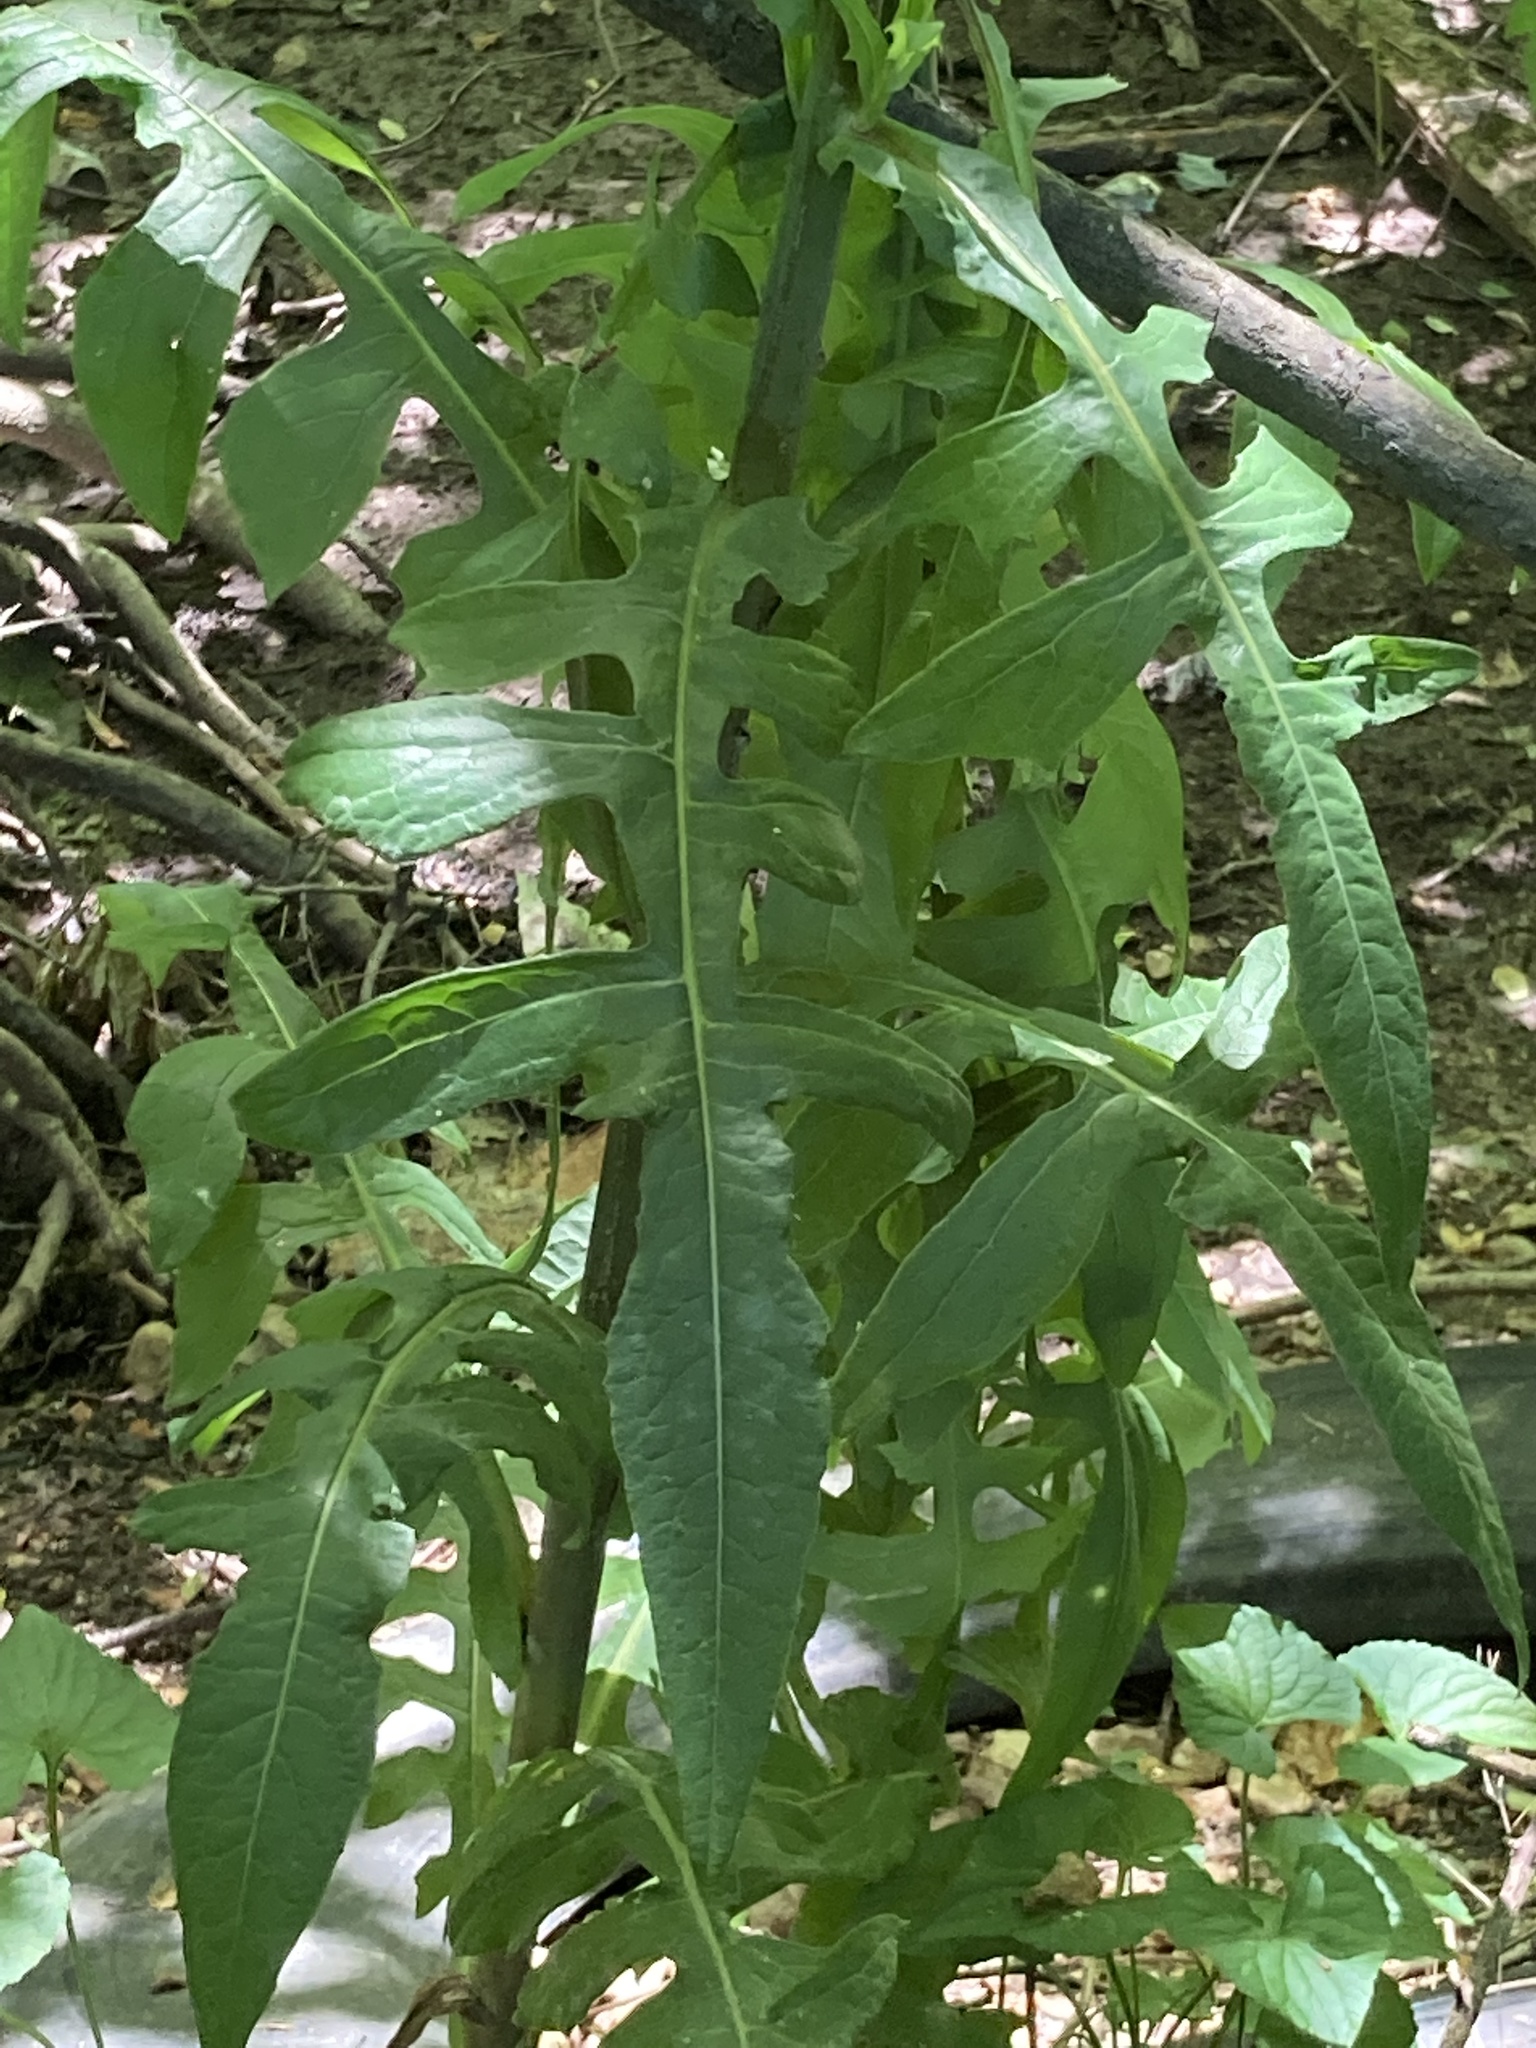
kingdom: Plantae
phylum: Tracheophyta
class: Magnoliopsida
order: Asterales
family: Asteraceae
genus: Lactuca
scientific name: Lactuca canadensis
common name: Canada lettuce
